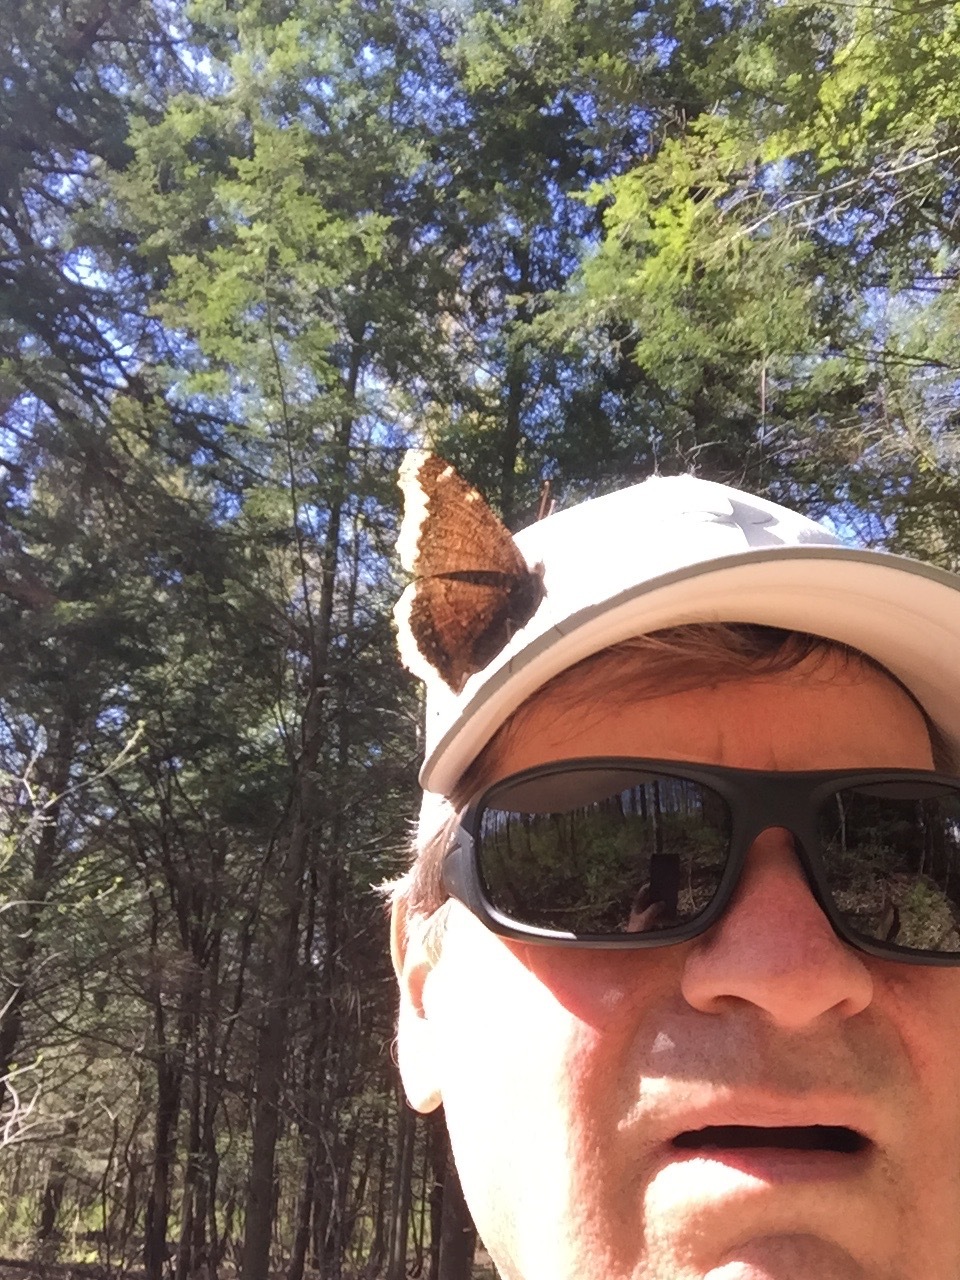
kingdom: Animalia
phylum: Arthropoda
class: Insecta
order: Lepidoptera
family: Nymphalidae
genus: Nymphalis
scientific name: Nymphalis antiopa
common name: Camberwell beauty
